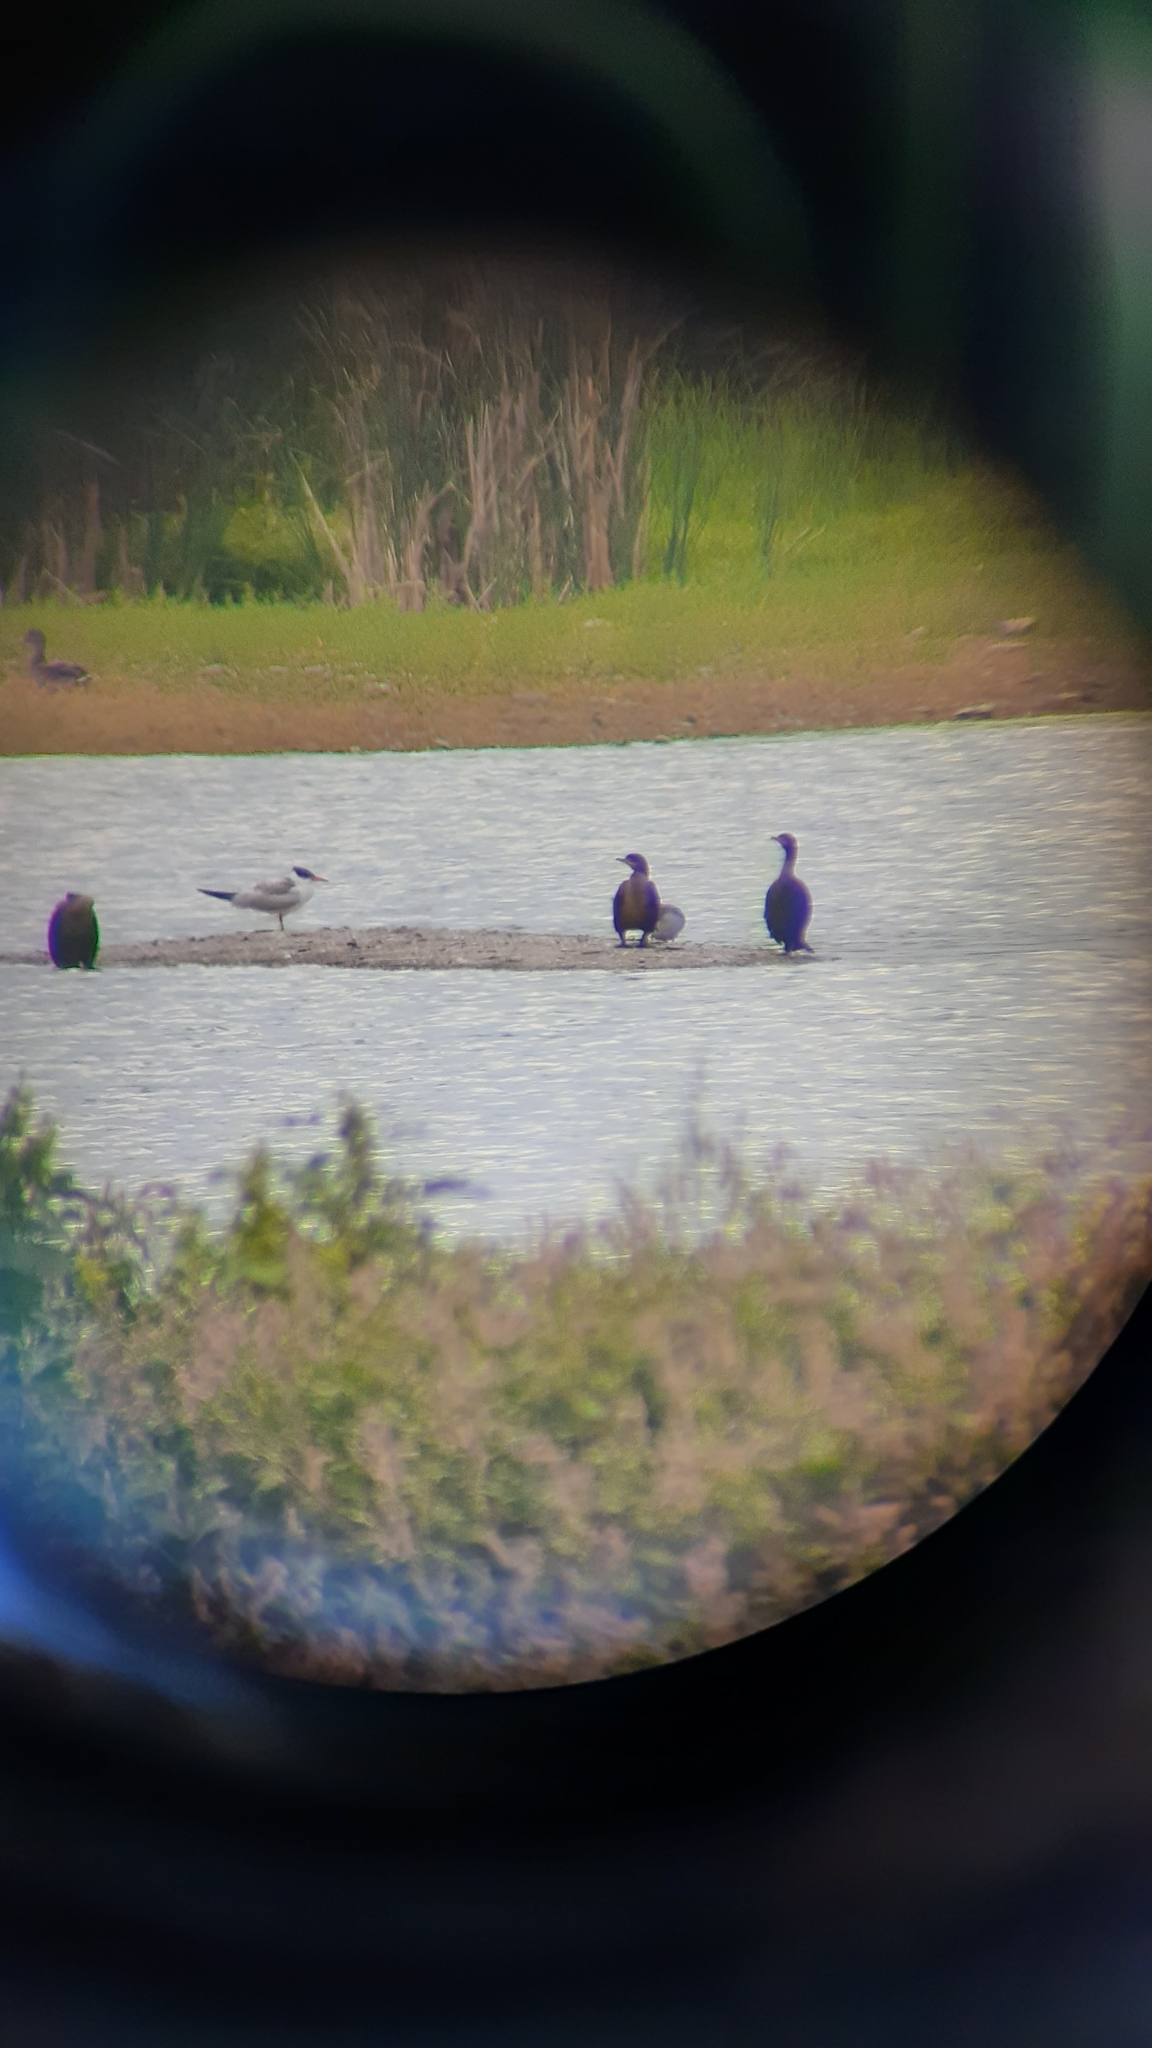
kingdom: Animalia
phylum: Chordata
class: Aves
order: Charadriiformes
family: Laridae
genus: Hydroprogne
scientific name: Hydroprogne caspia
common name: Caspian tern
